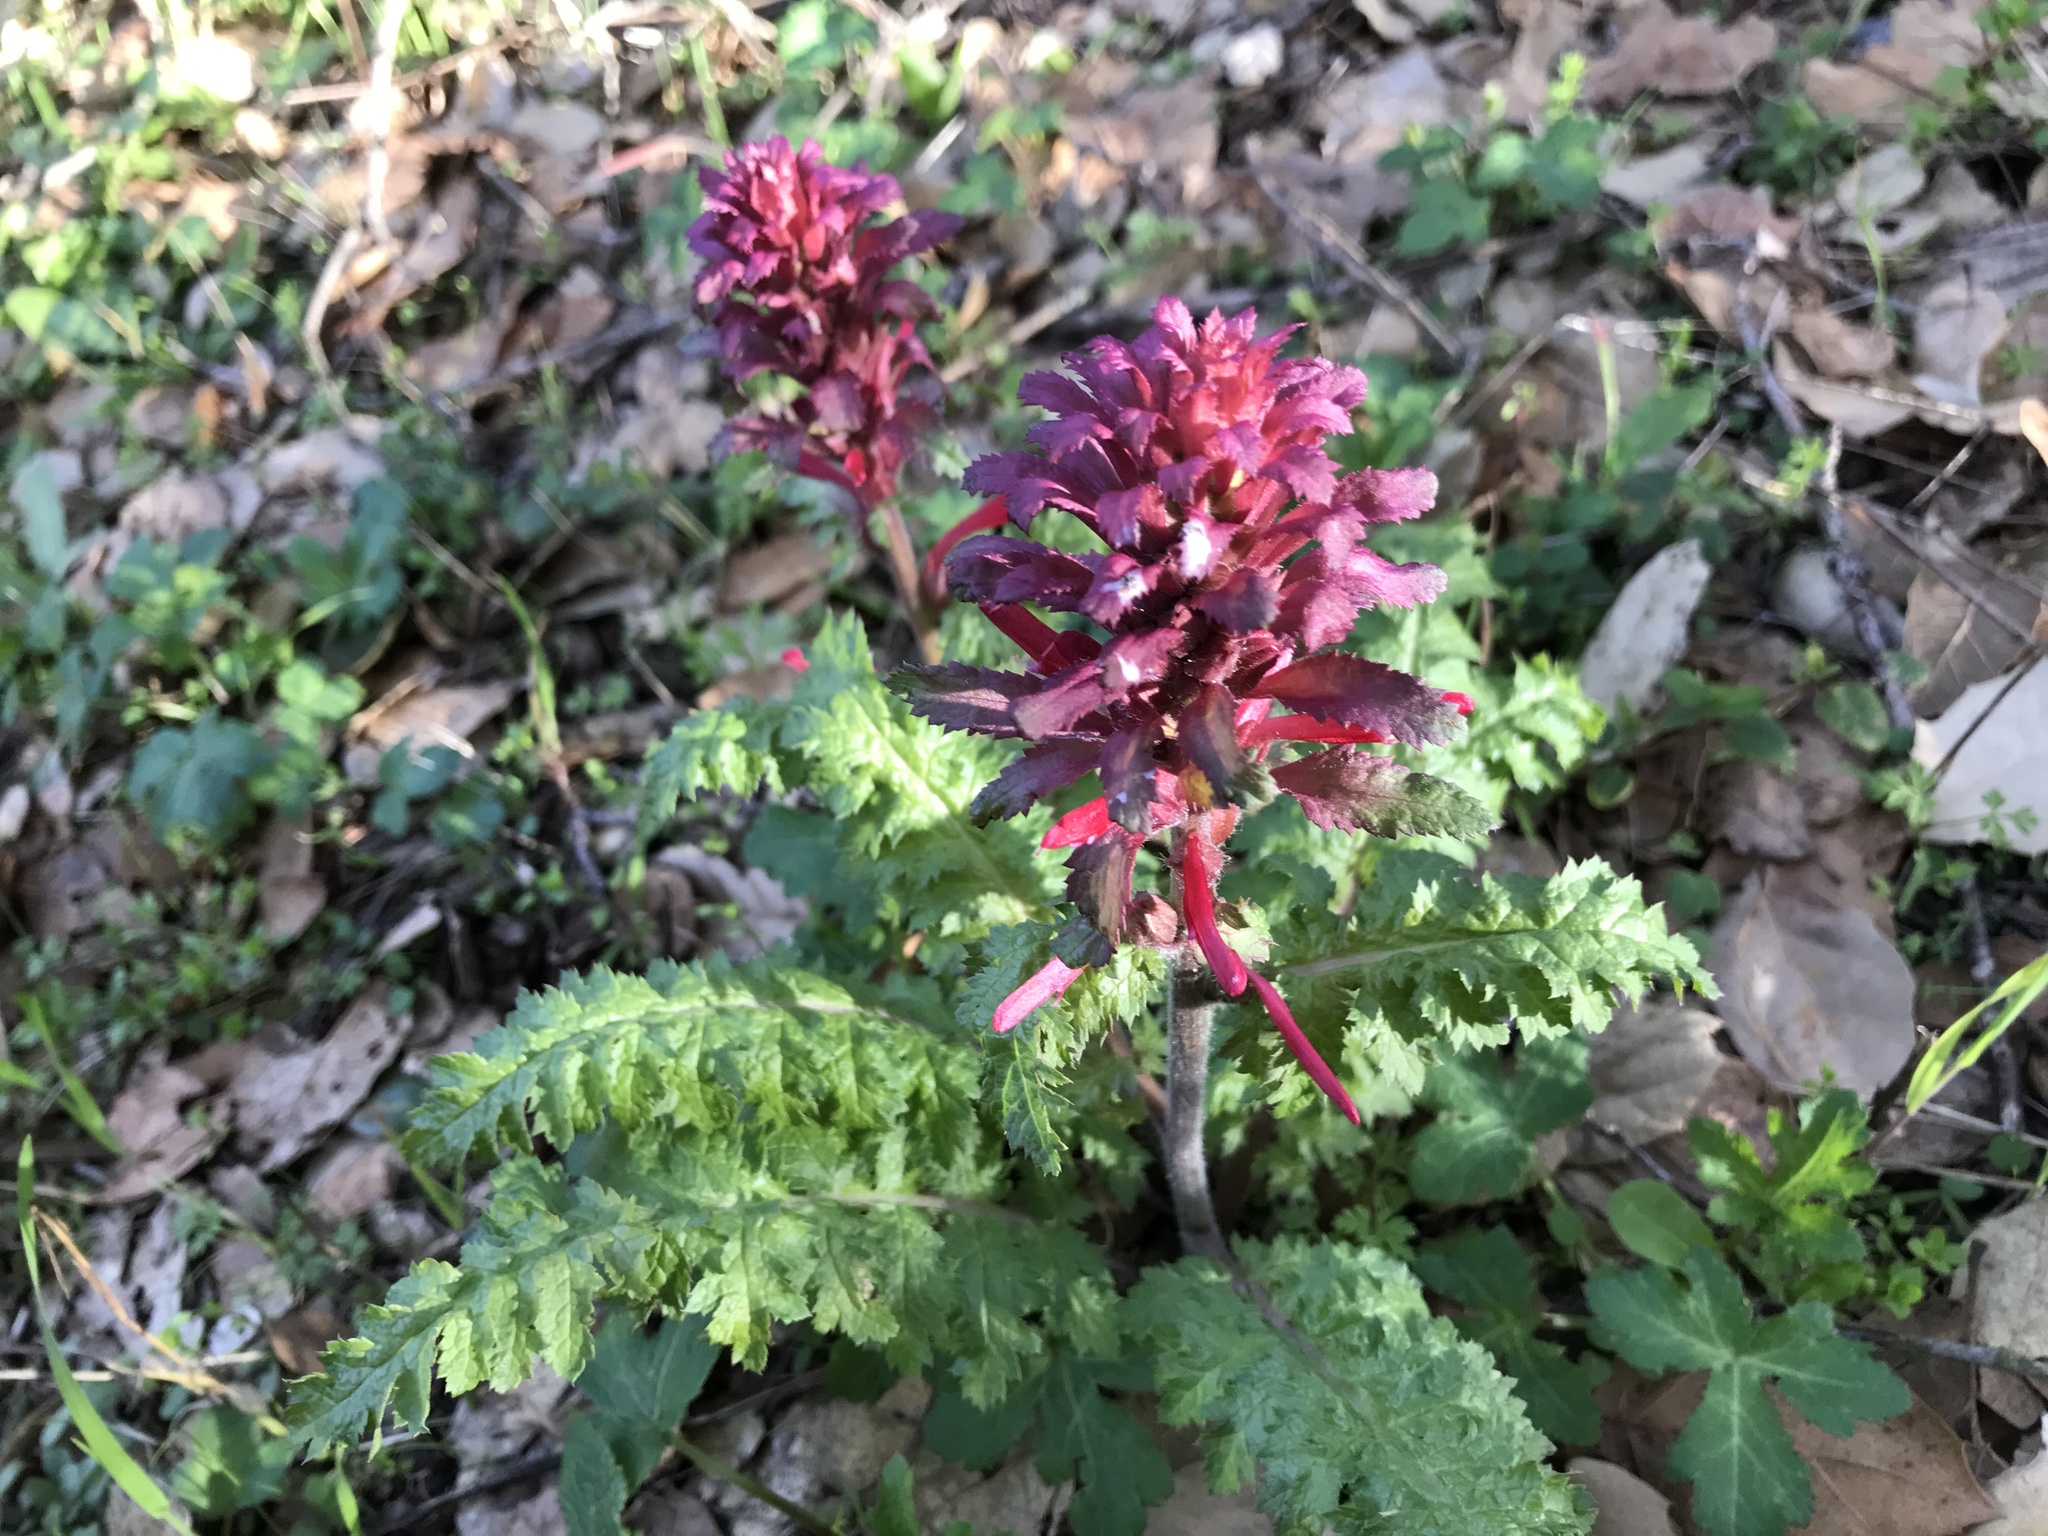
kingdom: Plantae
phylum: Tracheophyta
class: Magnoliopsida
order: Lamiales
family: Orobanchaceae
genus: Pedicularis
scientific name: Pedicularis densiflora
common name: Indian warrior
